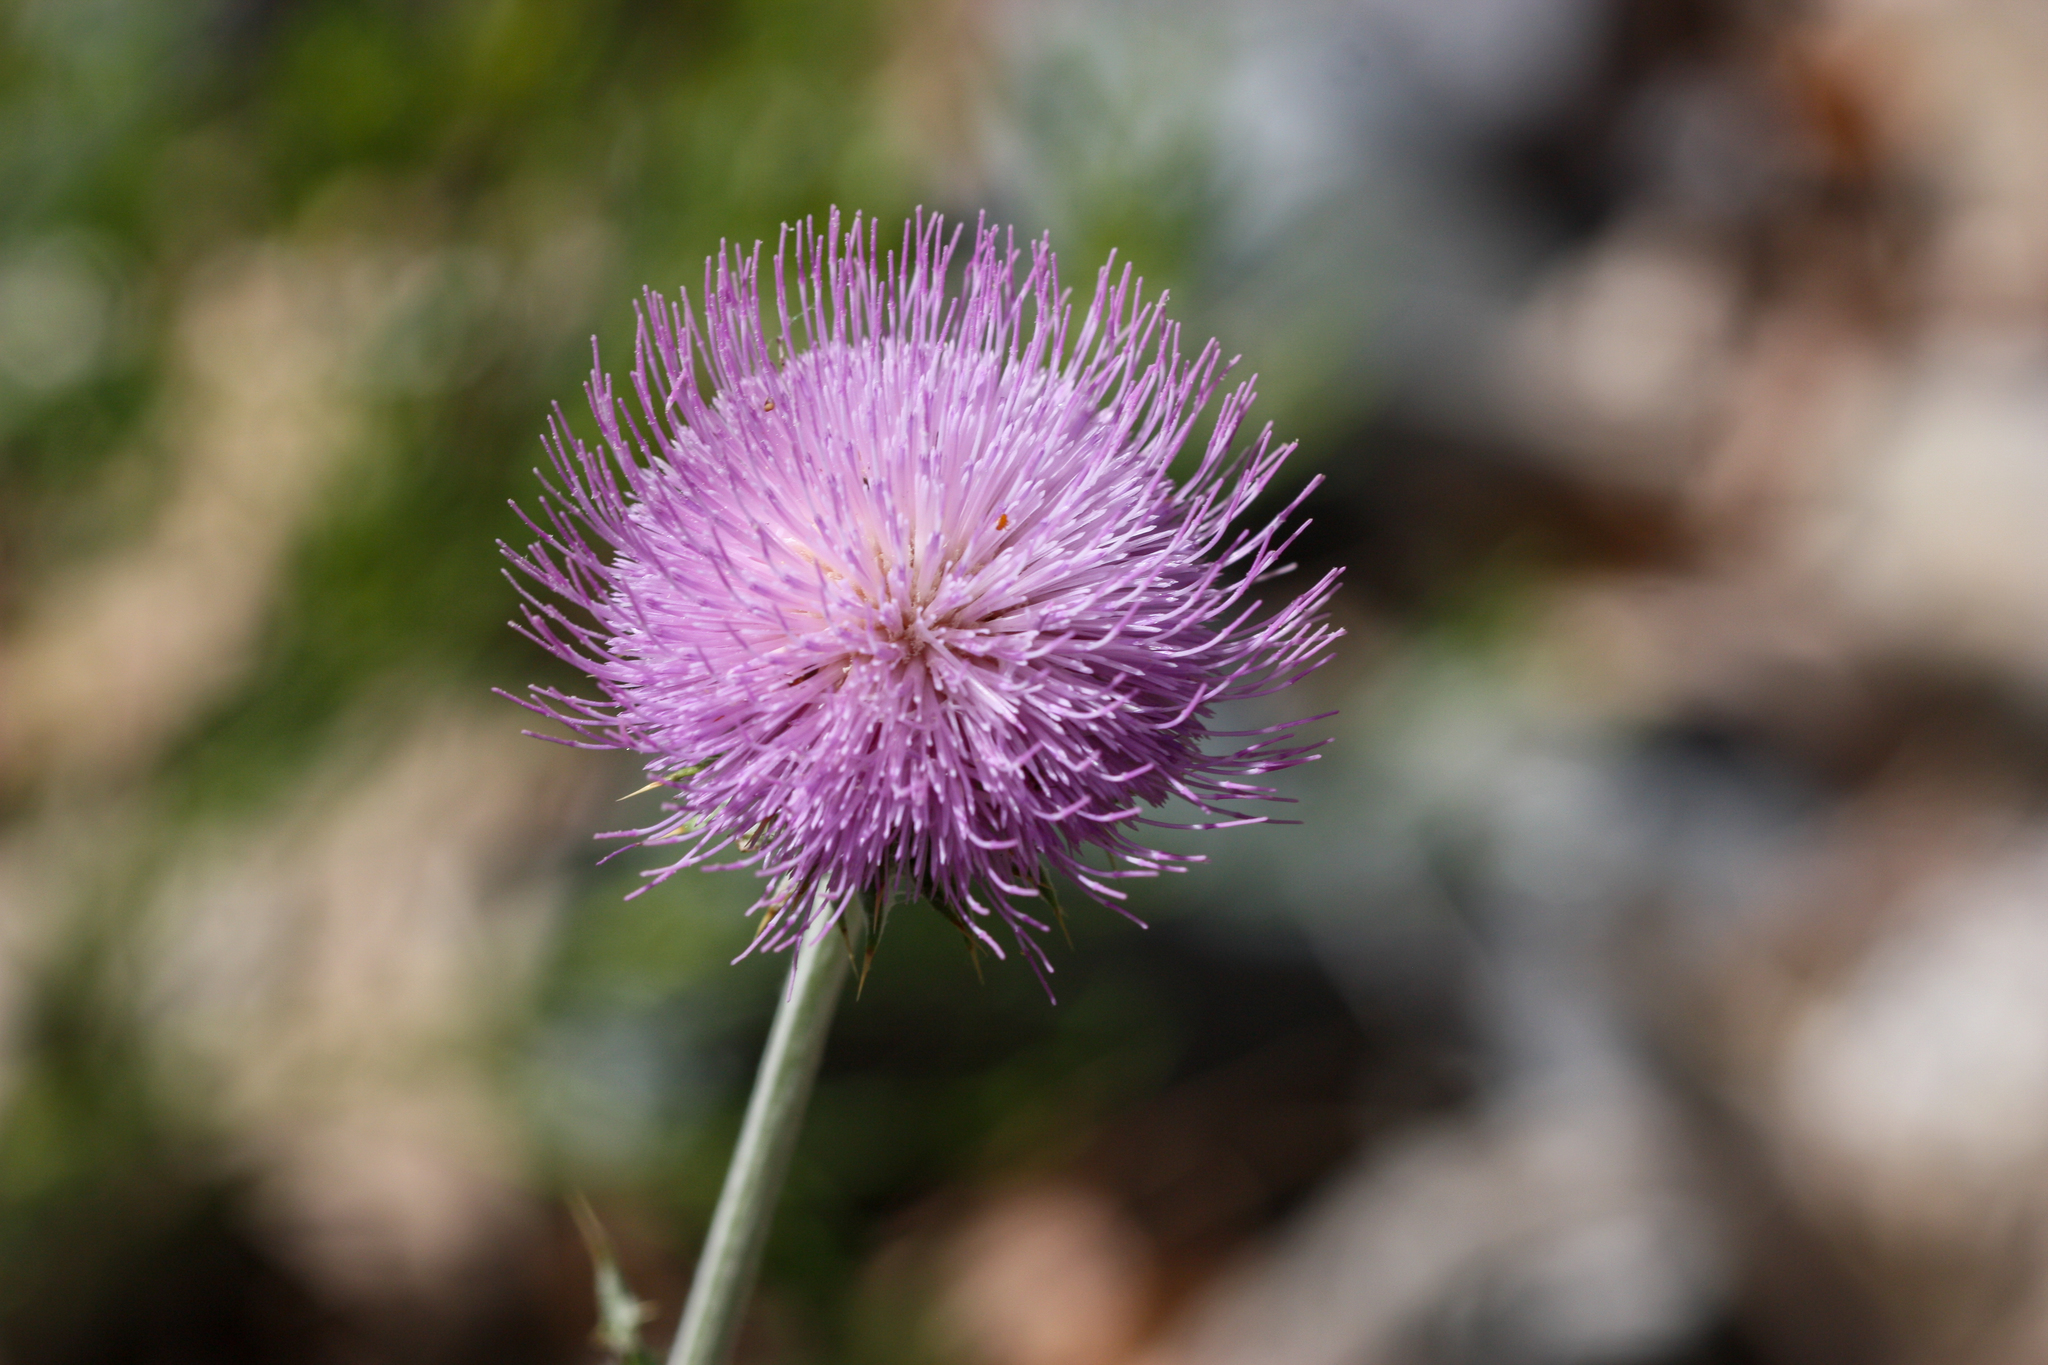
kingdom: Plantae
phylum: Tracheophyta
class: Magnoliopsida
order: Asterales
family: Asteraceae
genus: Cirsium
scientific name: Cirsium neomexicanum
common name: New mexico thistle
